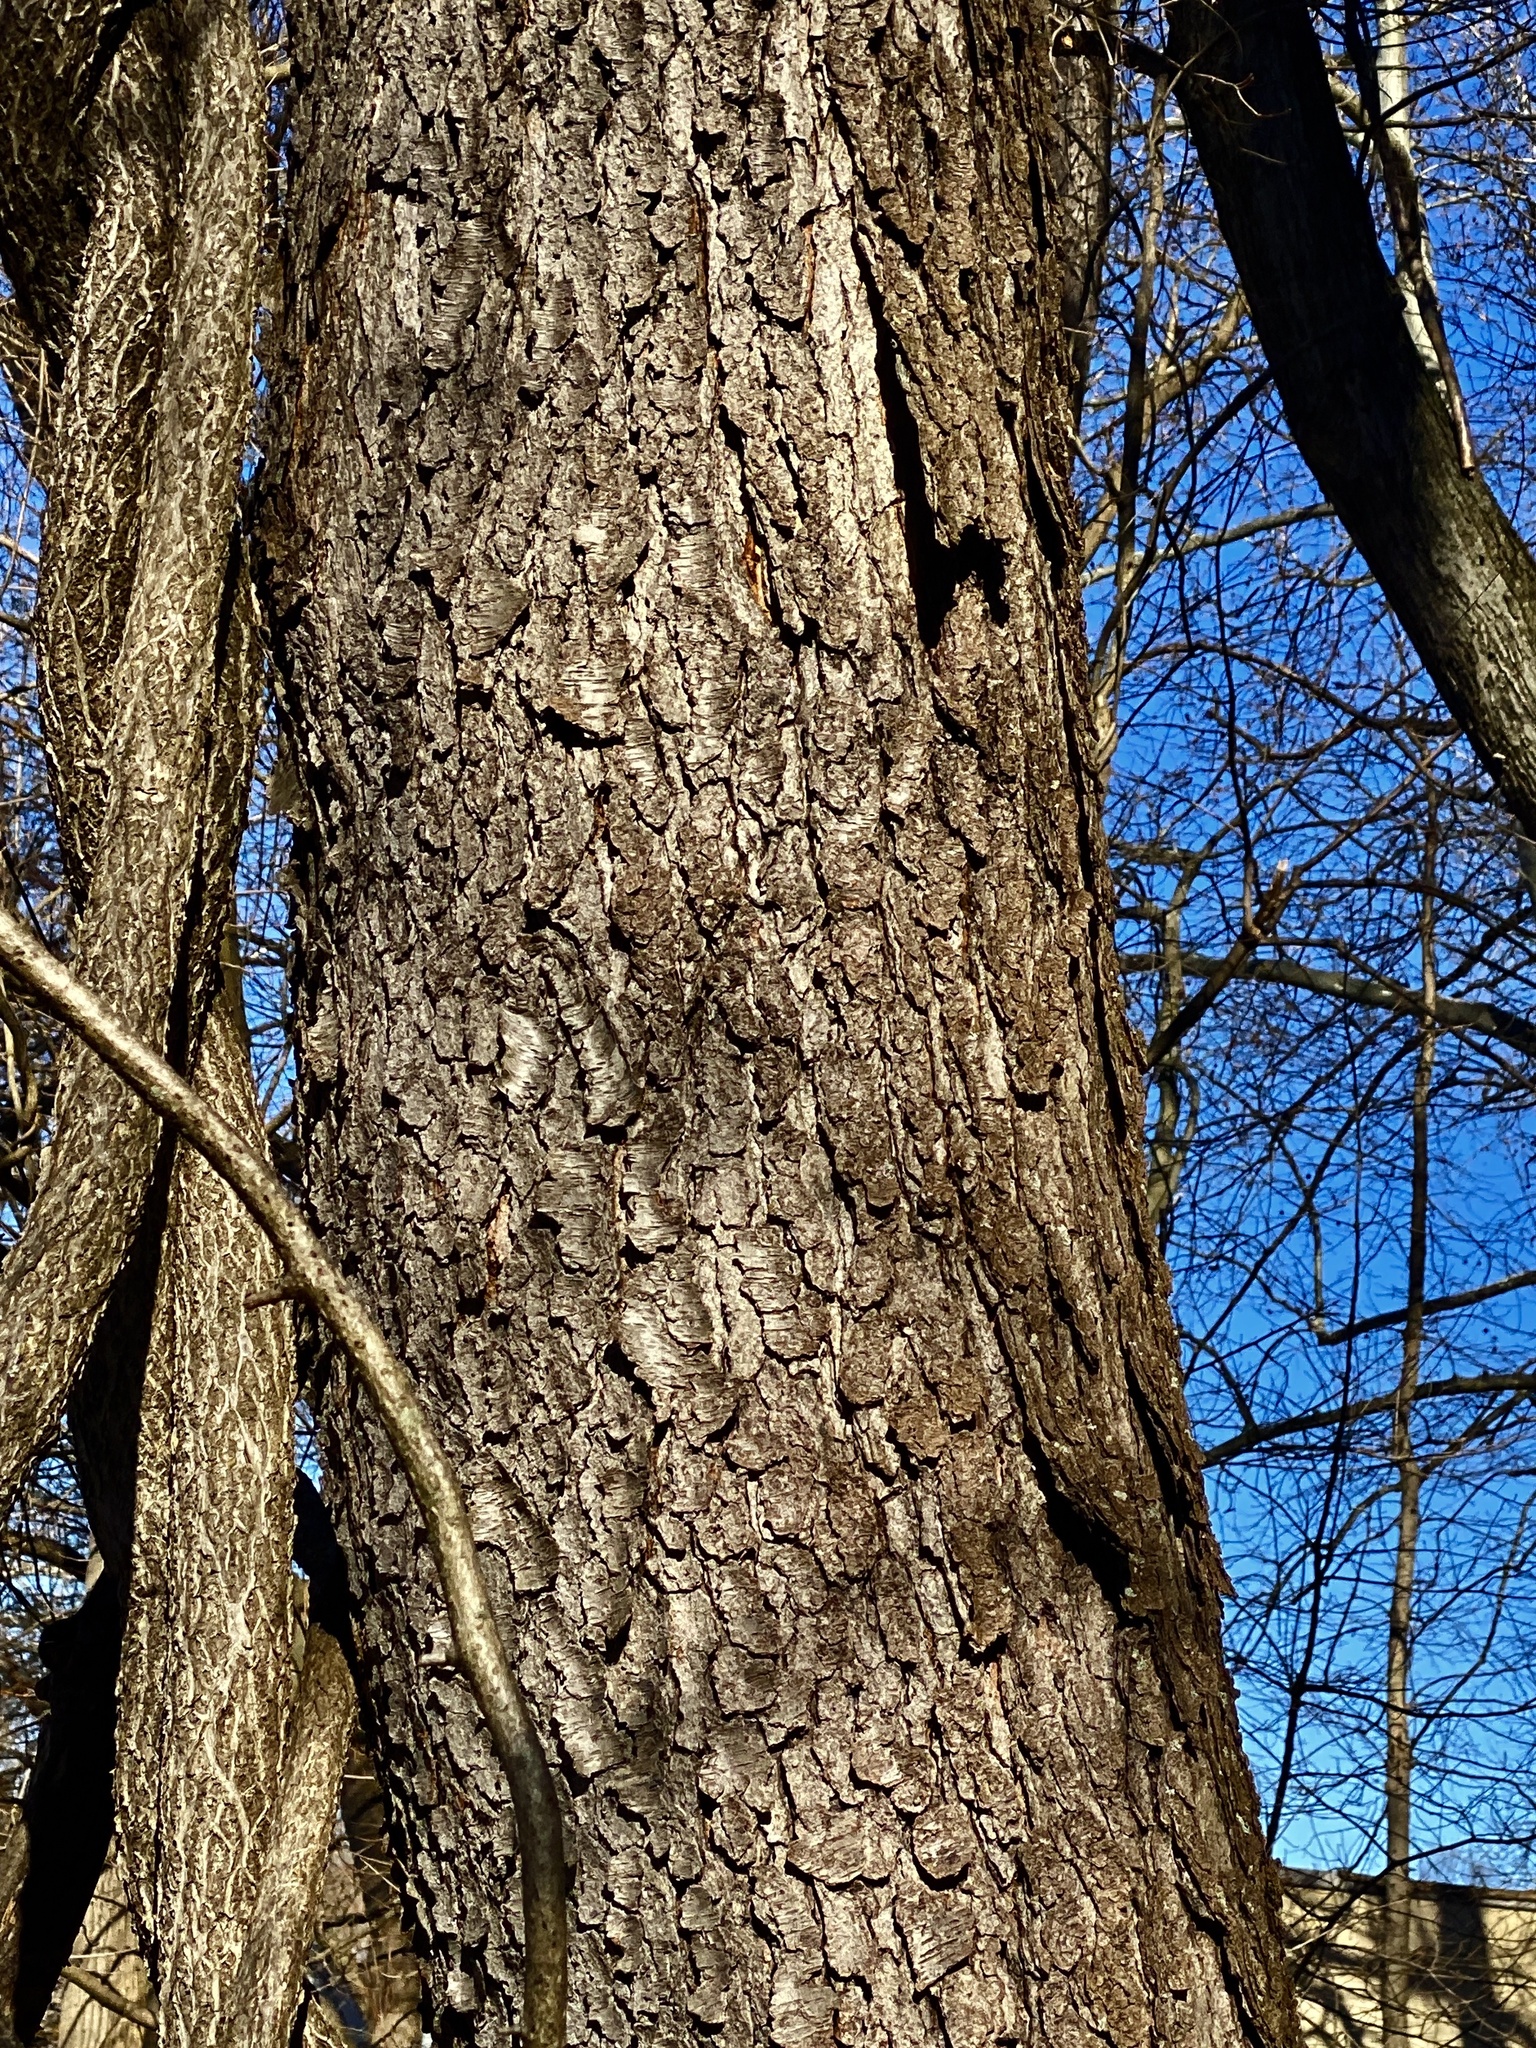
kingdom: Plantae
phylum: Tracheophyta
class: Magnoliopsida
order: Rosales
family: Rosaceae
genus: Prunus
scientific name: Prunus serotina
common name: Black cherry
